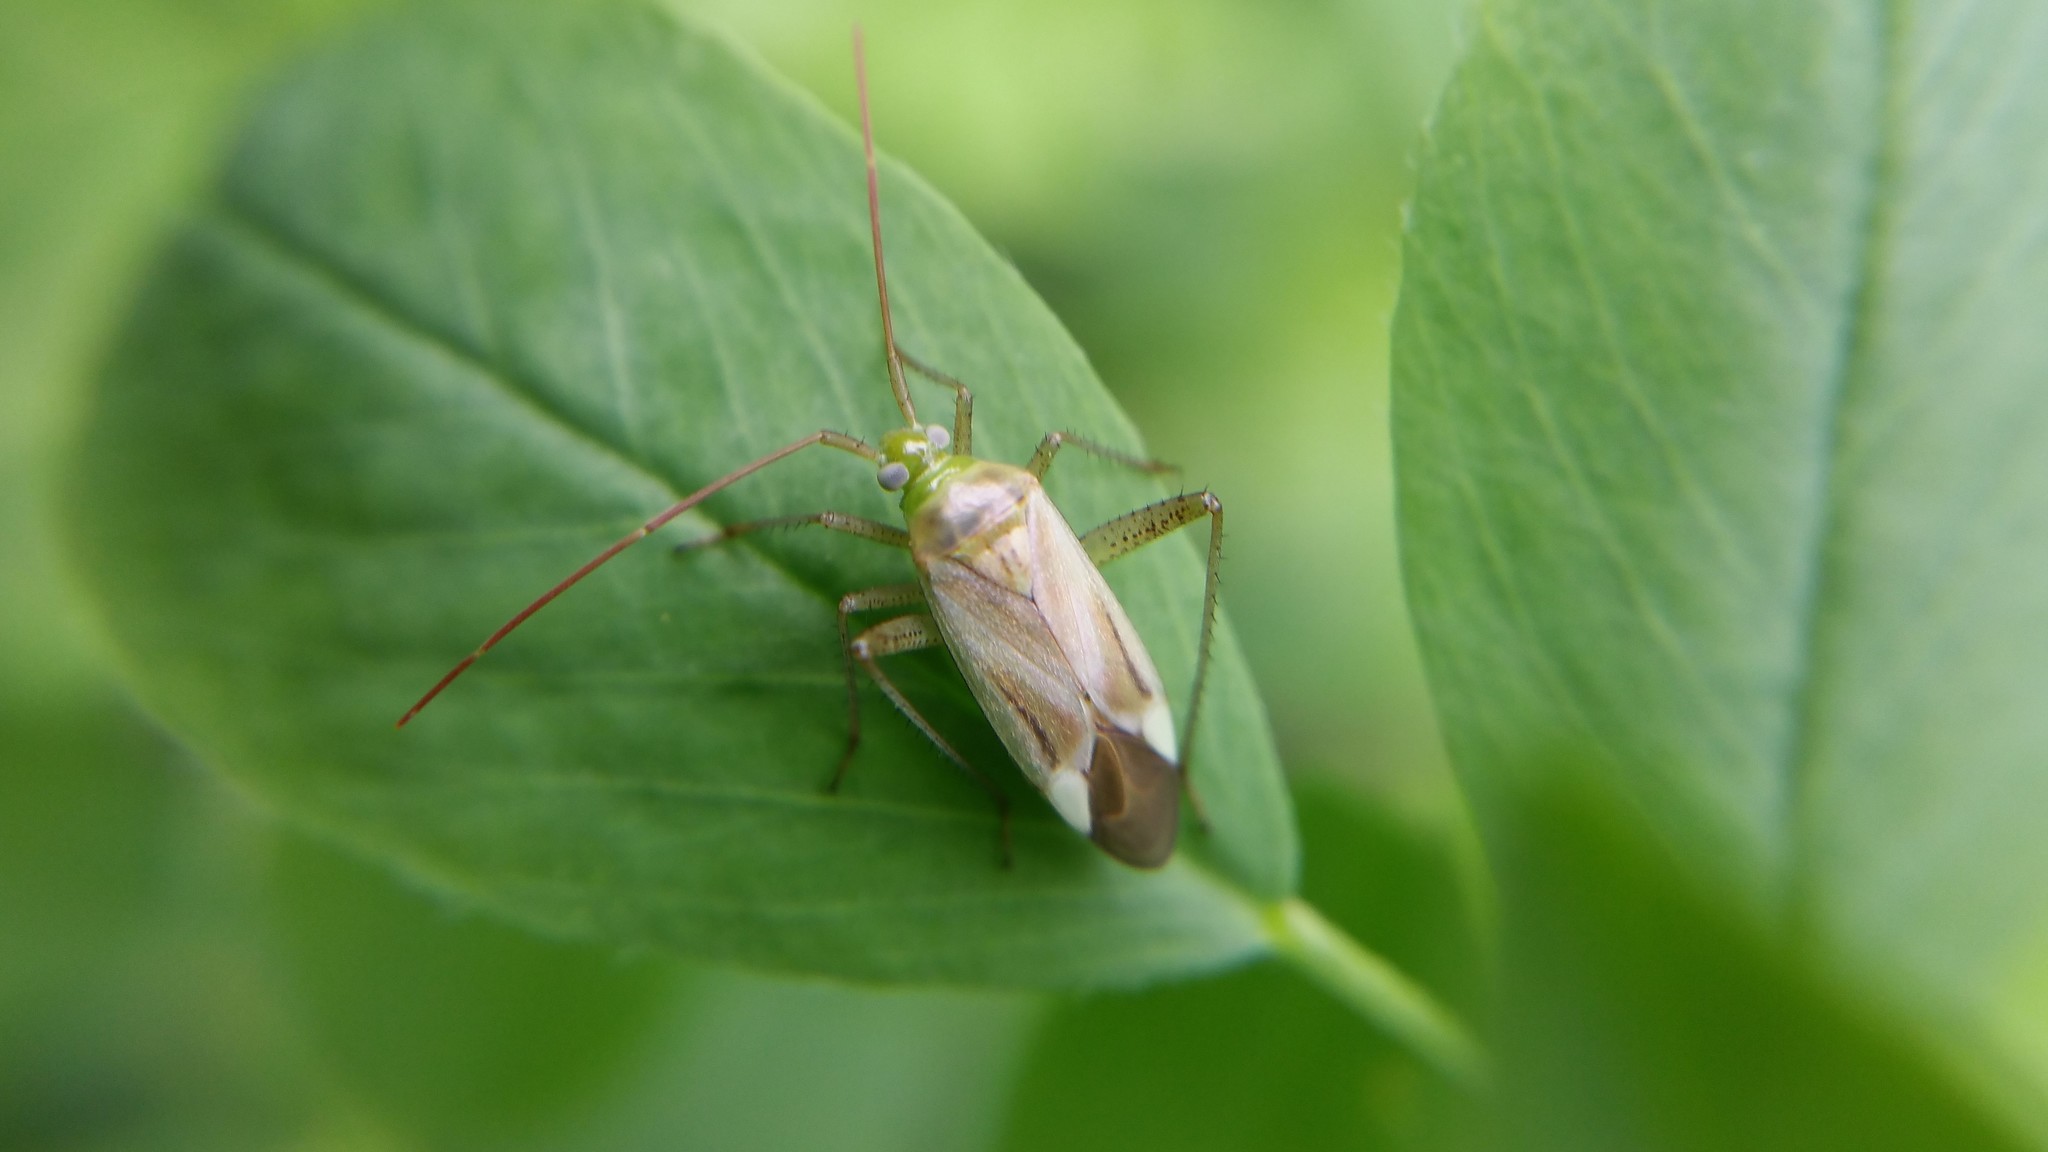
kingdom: Animalia
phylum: Arthropoda
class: Insecta
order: Hemiptera
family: Miridae
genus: Adelphocoris
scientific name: Adelphocoris lineolatus
